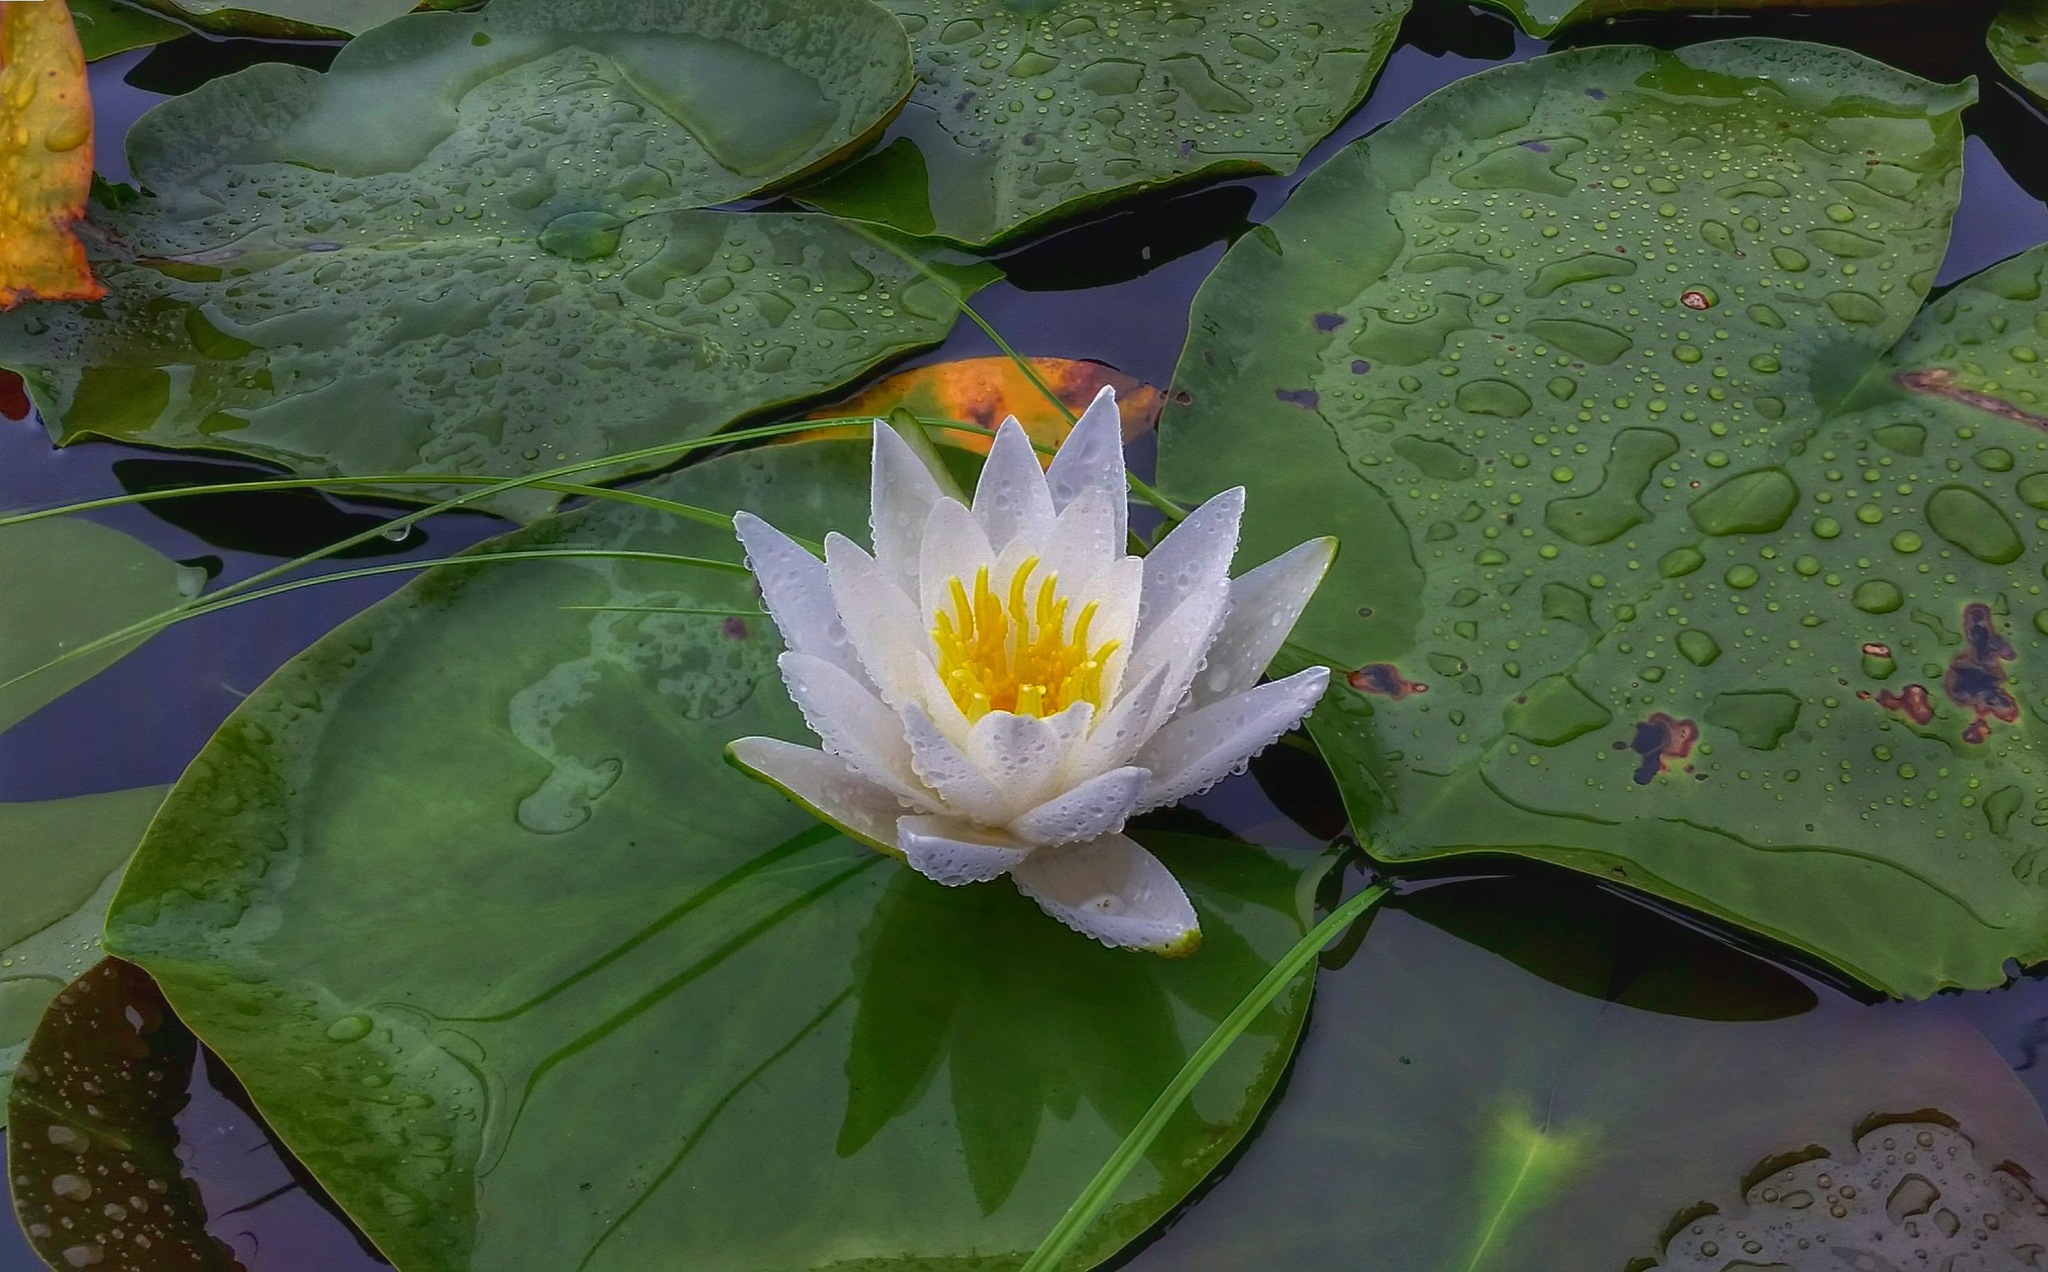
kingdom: Plantae
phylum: Tracheophyta
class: Magnoliopsida
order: Nymphaeales
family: Nymphaeaceae
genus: Nymphaea
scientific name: Nymphaea odorata
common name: Fragrant water-lily
